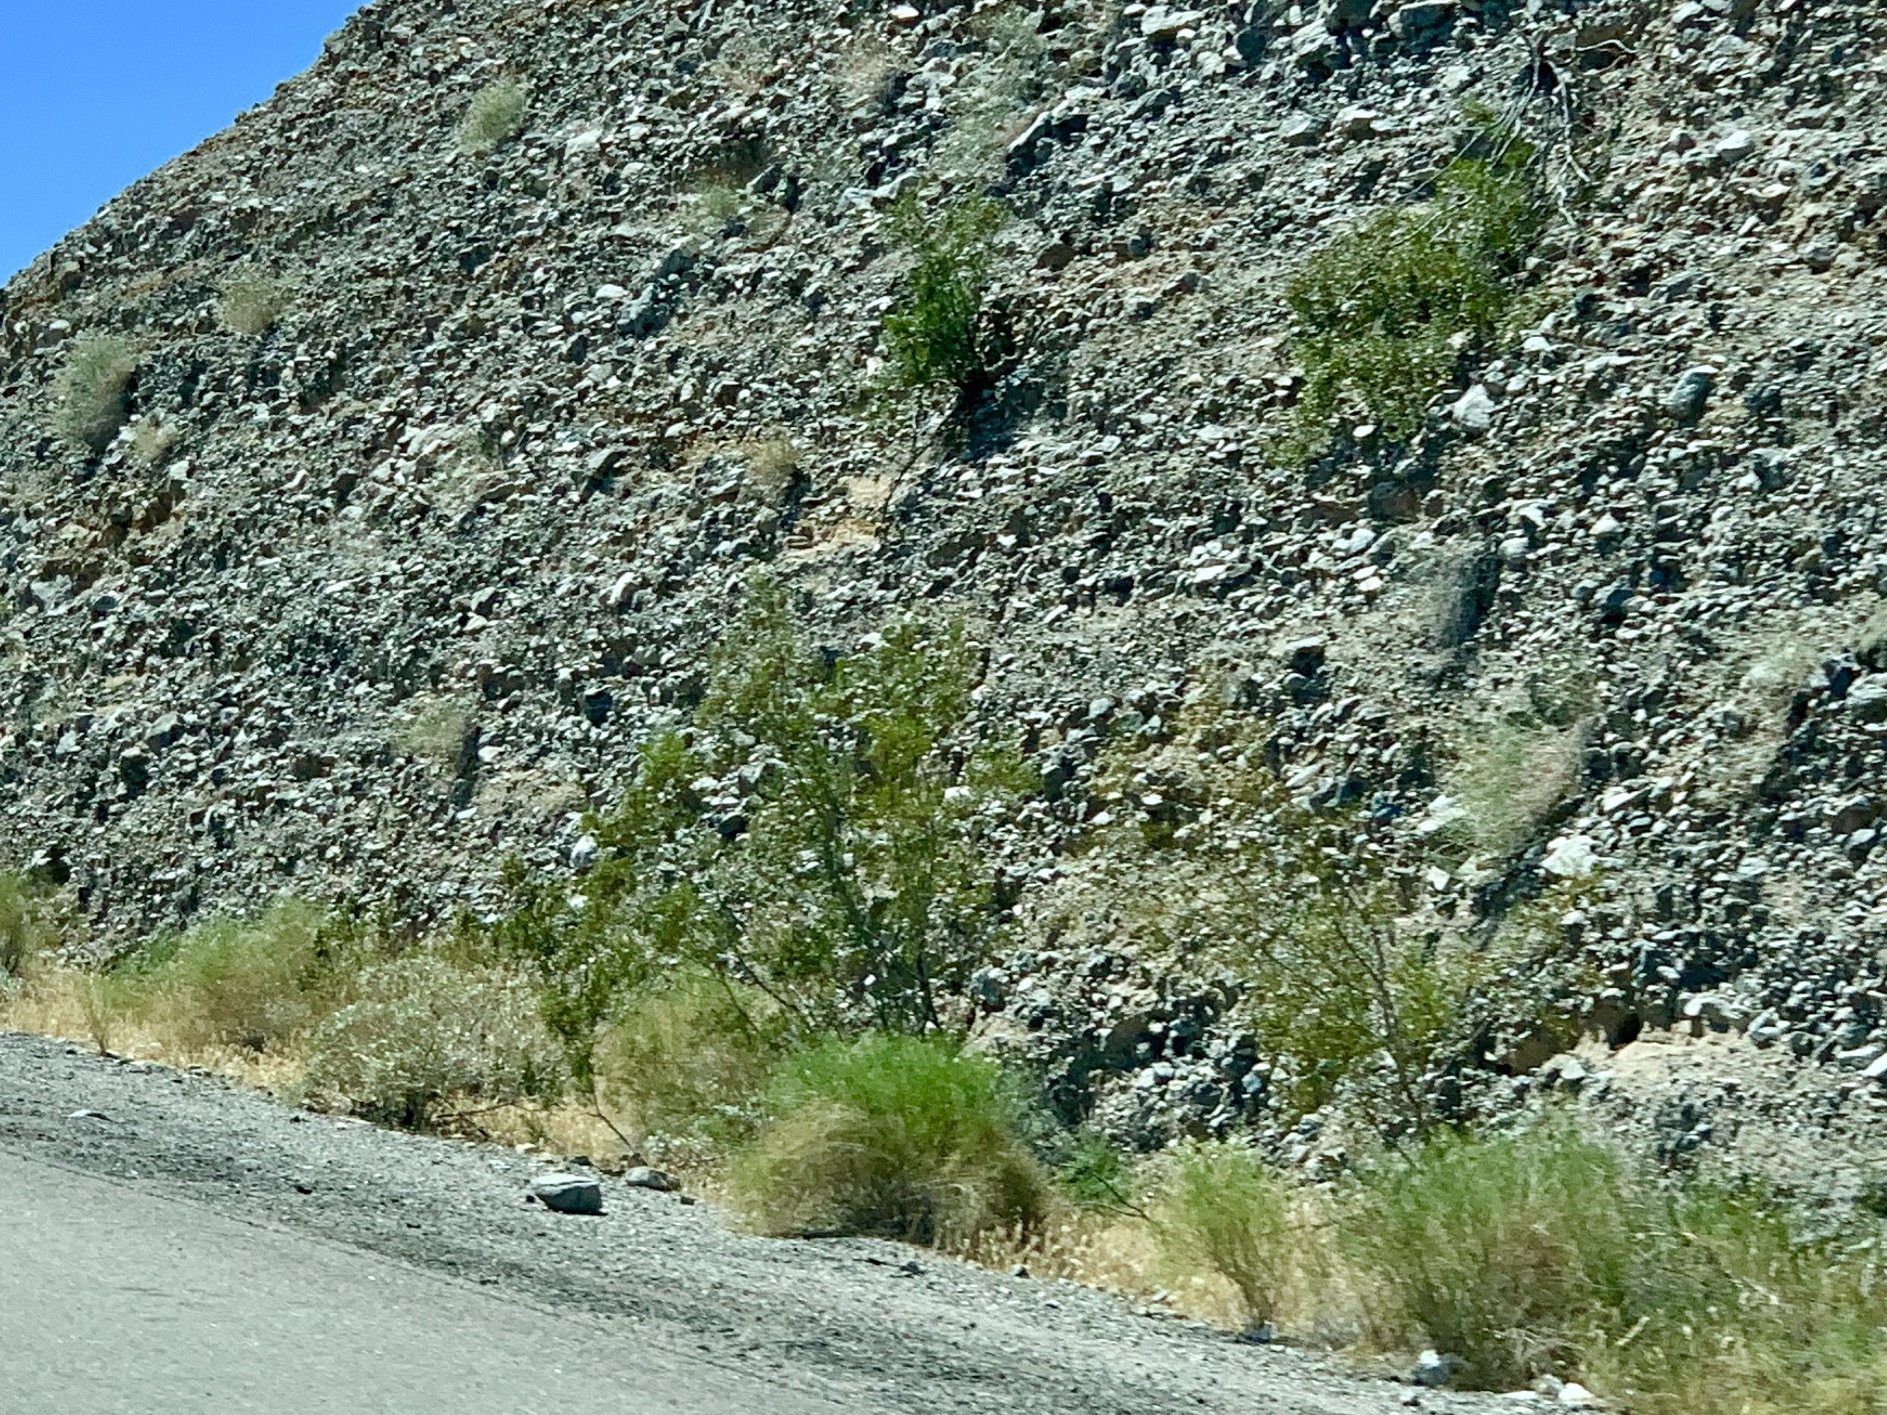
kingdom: Plantae
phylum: Tracheophyta
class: Magnoliopsida
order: Zygophyllales
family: Zygophyllaceae
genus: Larrea
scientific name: Larrea tridentata
